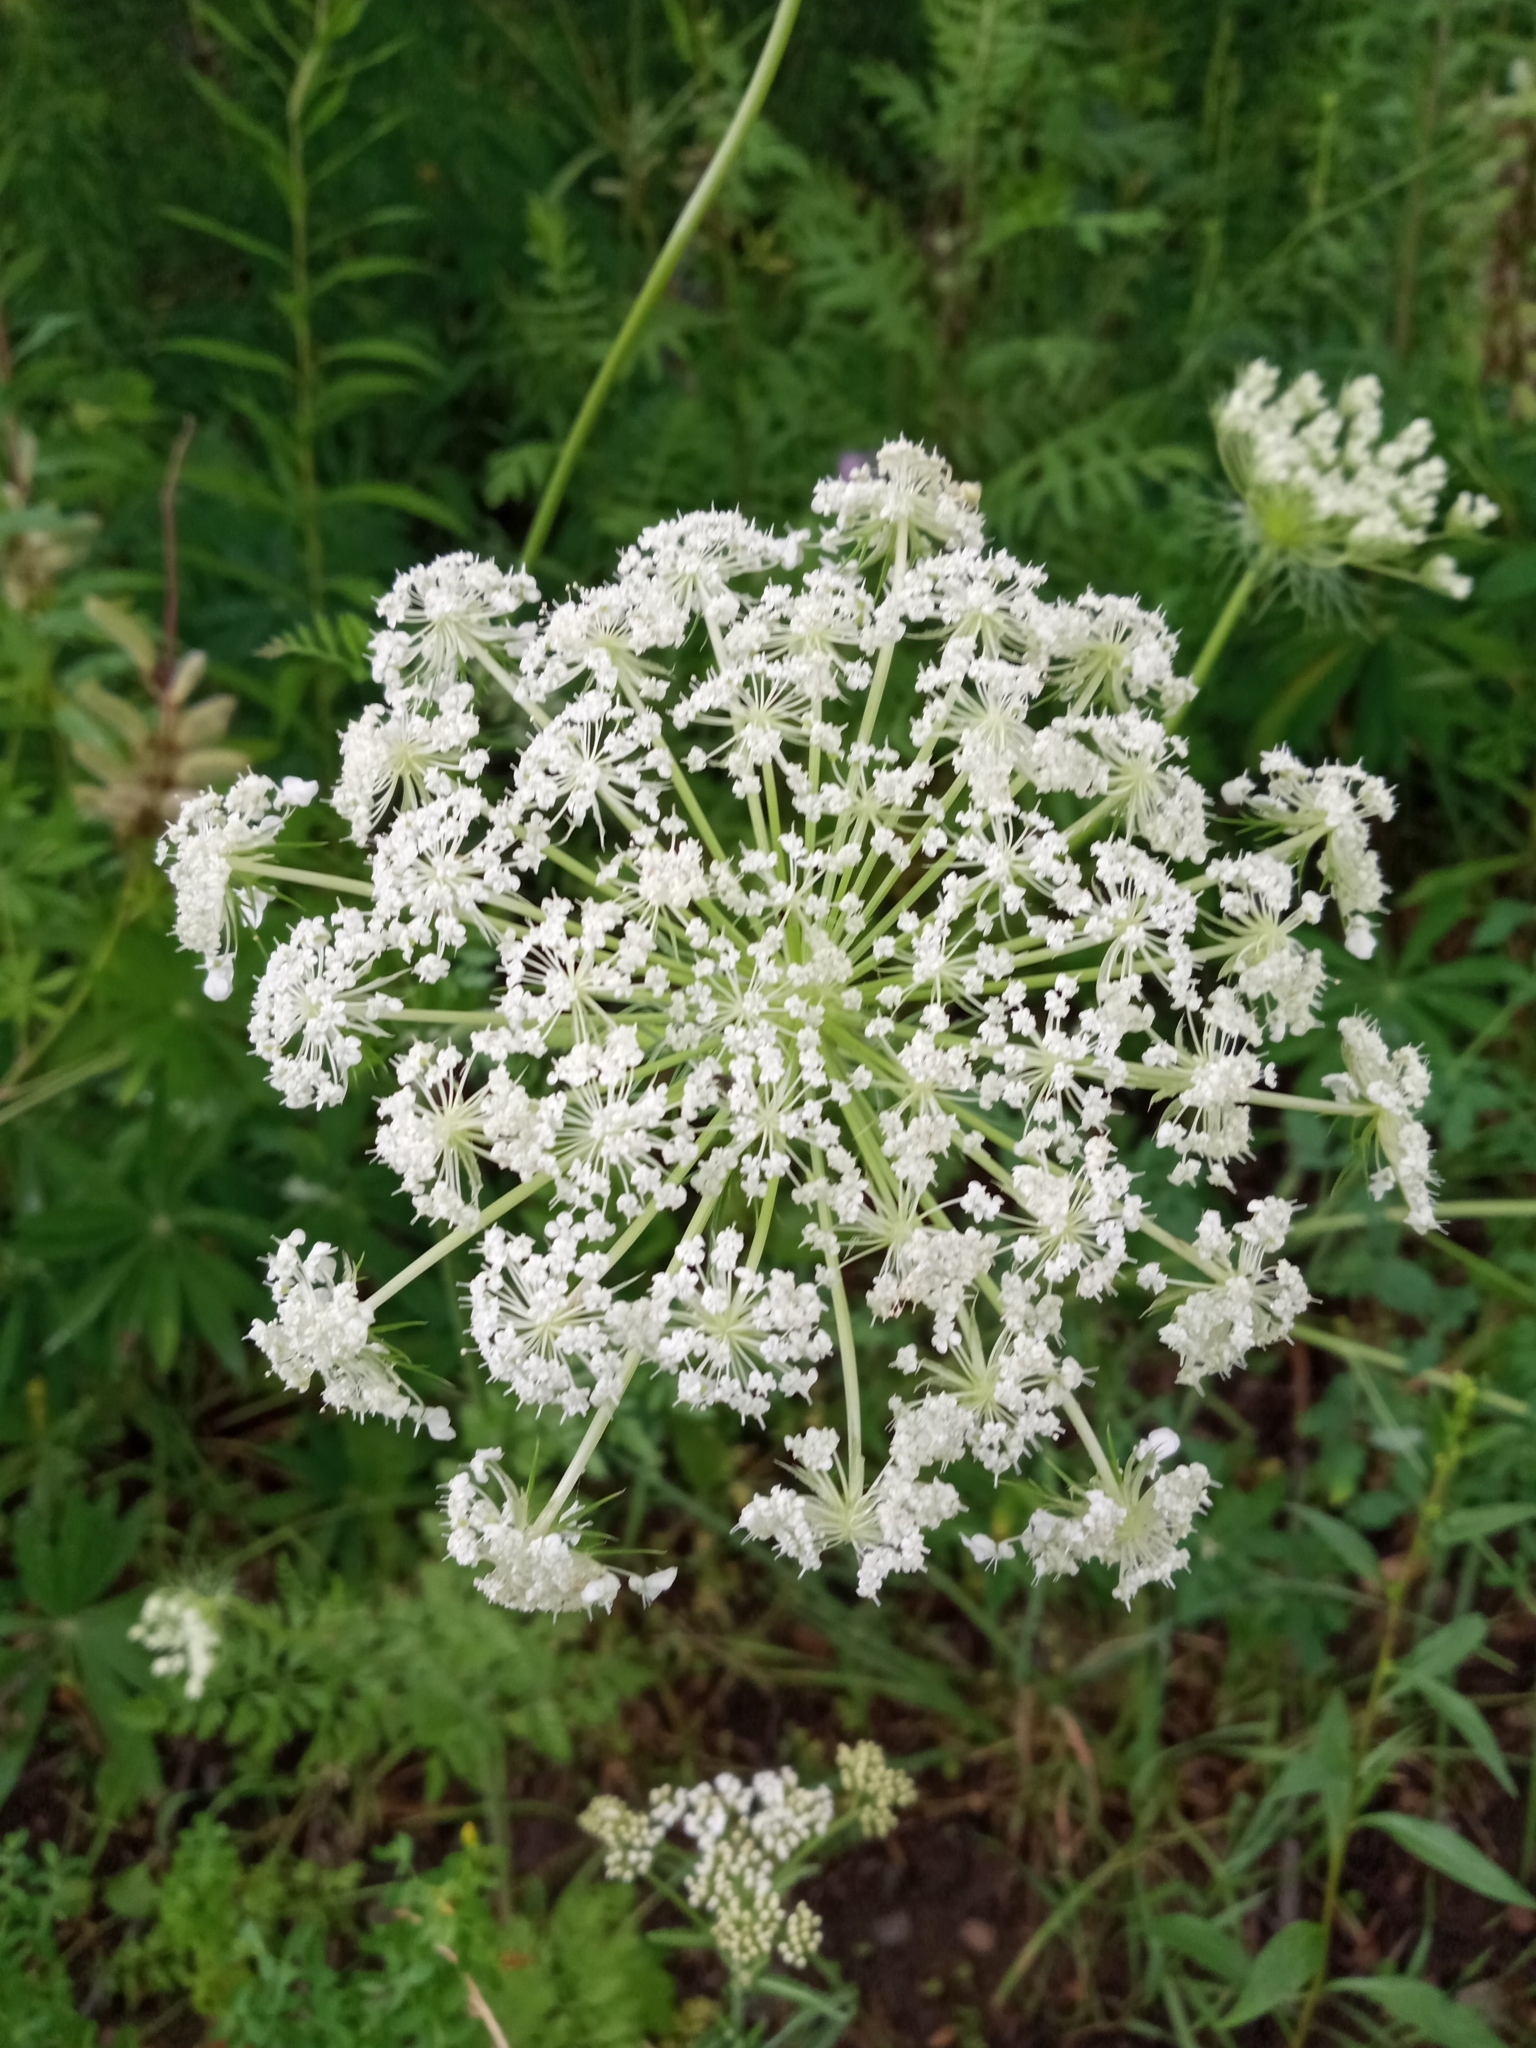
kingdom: Plantae
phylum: Tracheophyta
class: Magnoliopsida
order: Apiales
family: Apiaceae
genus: Daucus
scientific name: Daucus carota
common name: Wild carrot
